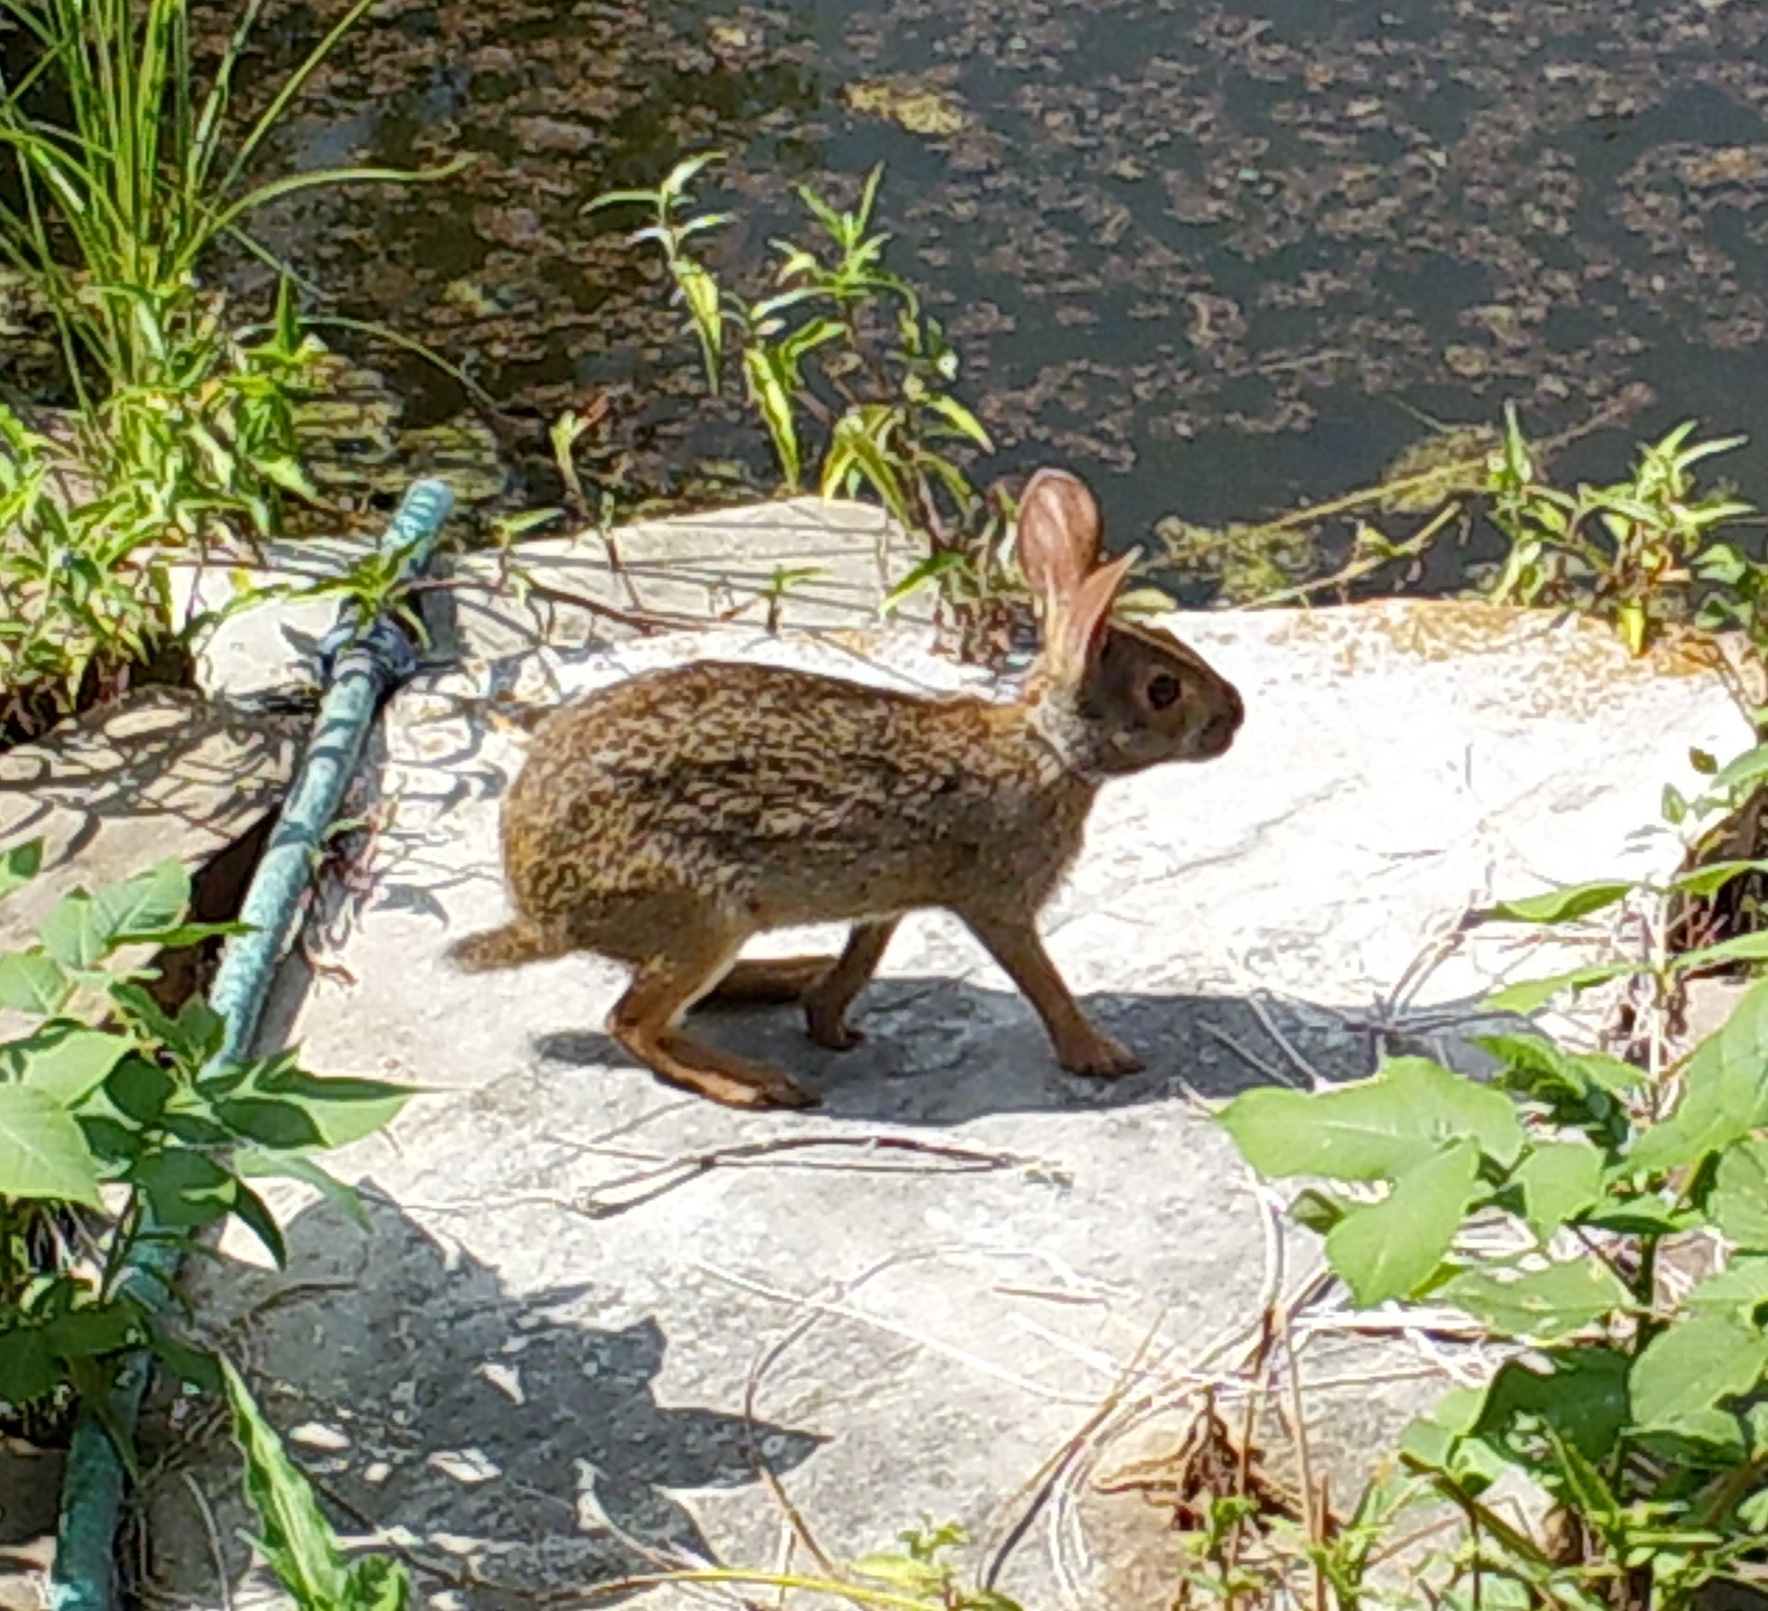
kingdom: Animalia
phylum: Chordata
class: Mammalia
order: Lagomorpha
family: Leporidae
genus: Sylvilagus
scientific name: Sylvilagus aquaticus
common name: Swamp rabbit
